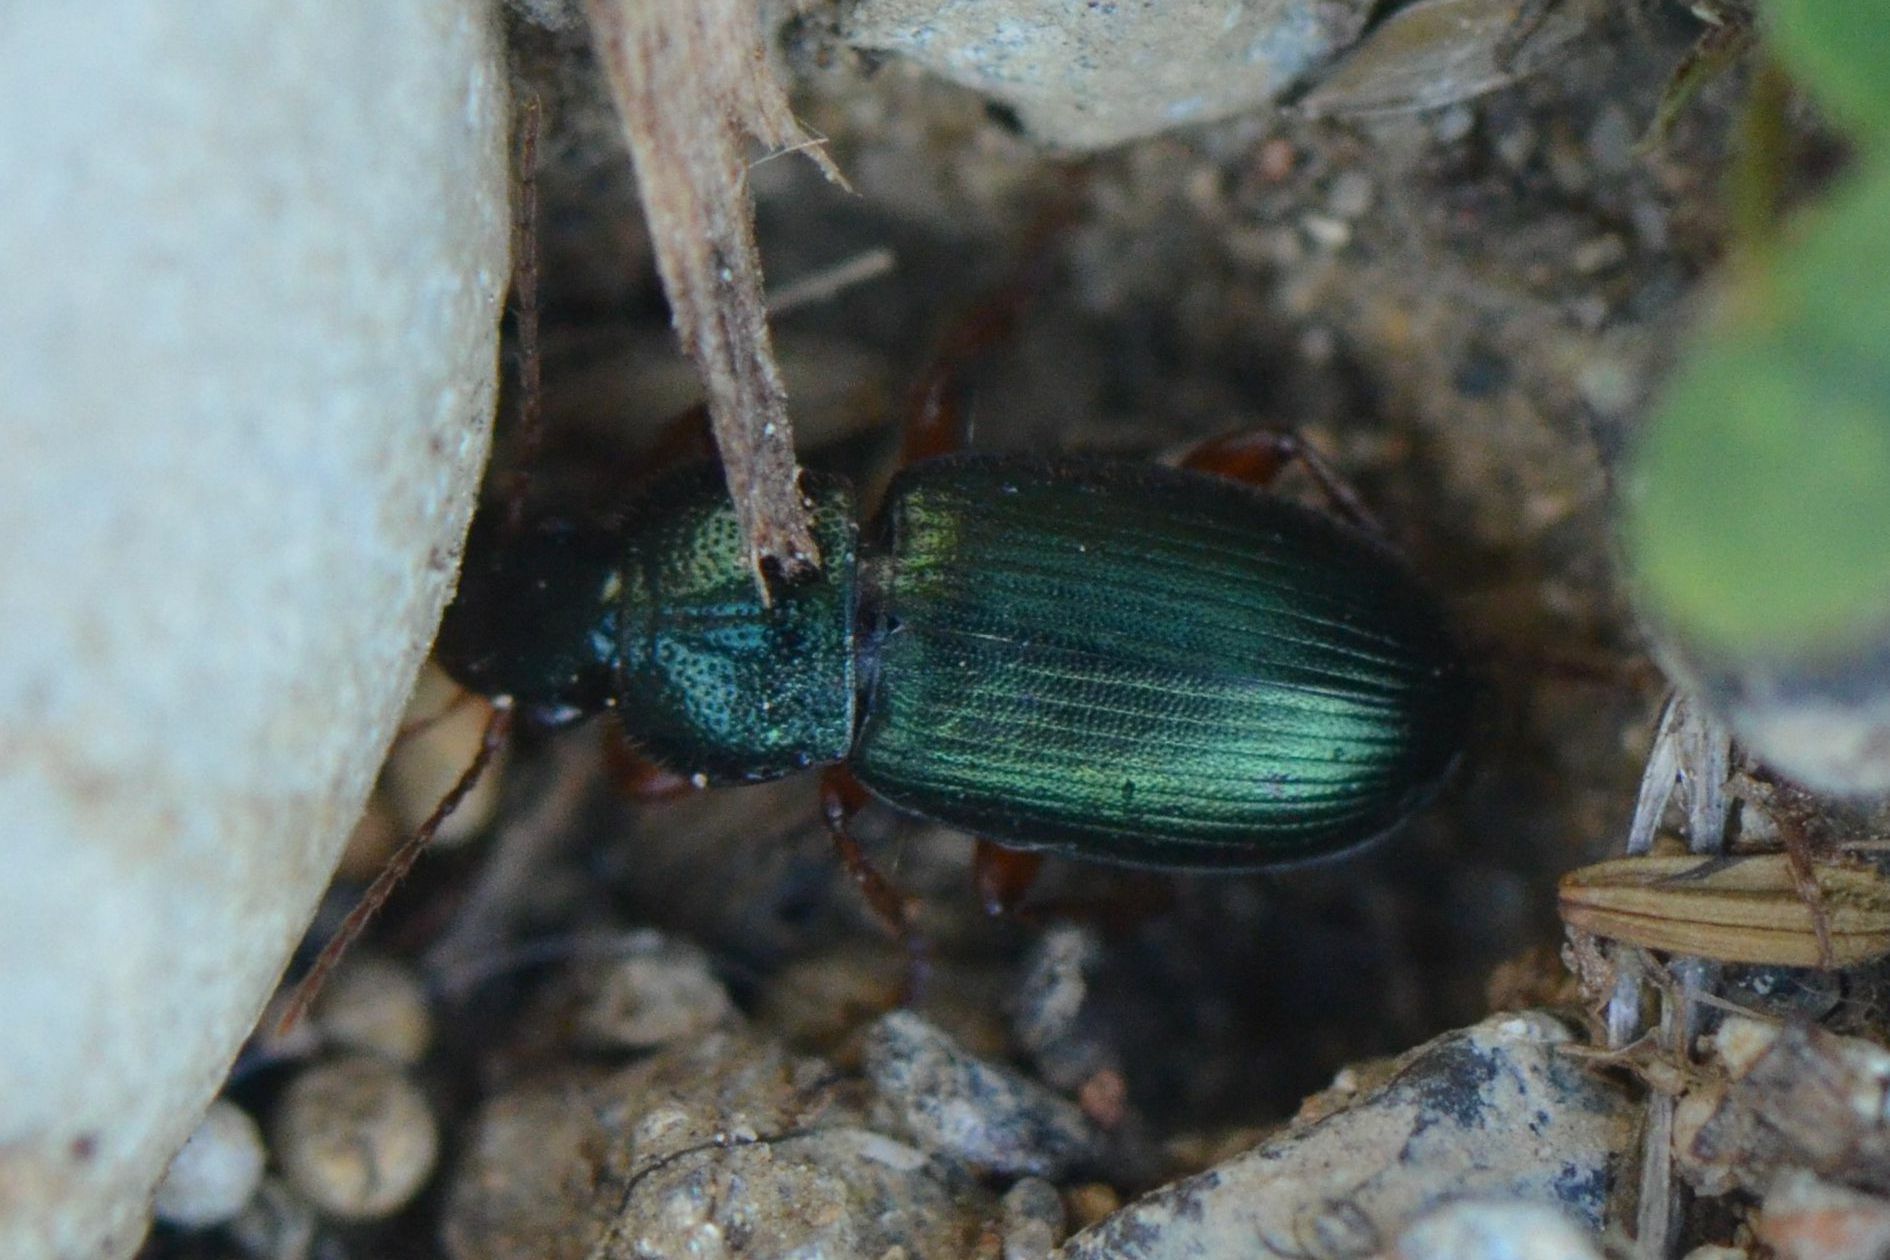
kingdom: Animalia
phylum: Arthropoda
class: Insecta
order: Coleoptera
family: Carabidae
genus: Ophonus
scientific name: Ophonus azureus
